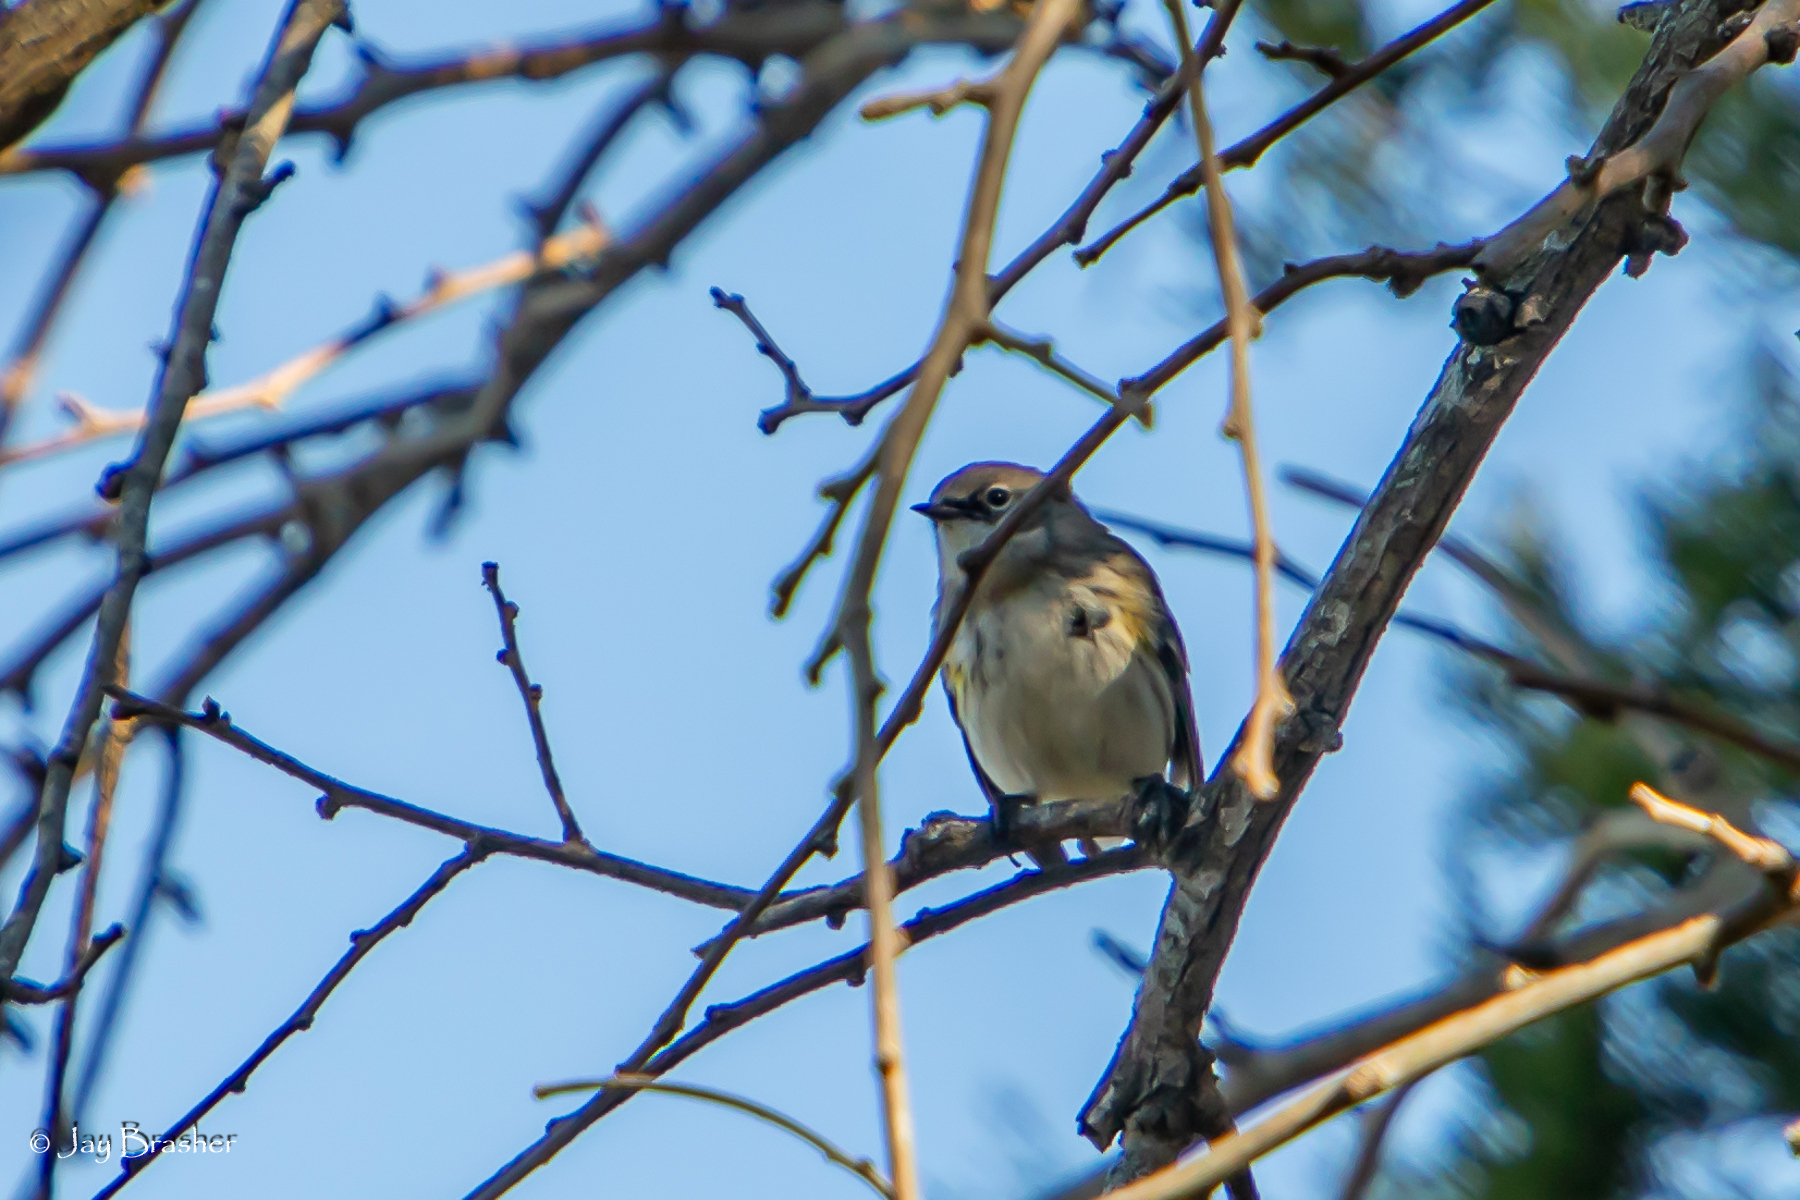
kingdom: Animalia
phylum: Chordata
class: Aves
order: Passeriformes
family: Parulidae
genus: Setophaga
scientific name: Setophaga coronata
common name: Myrtle warbler
